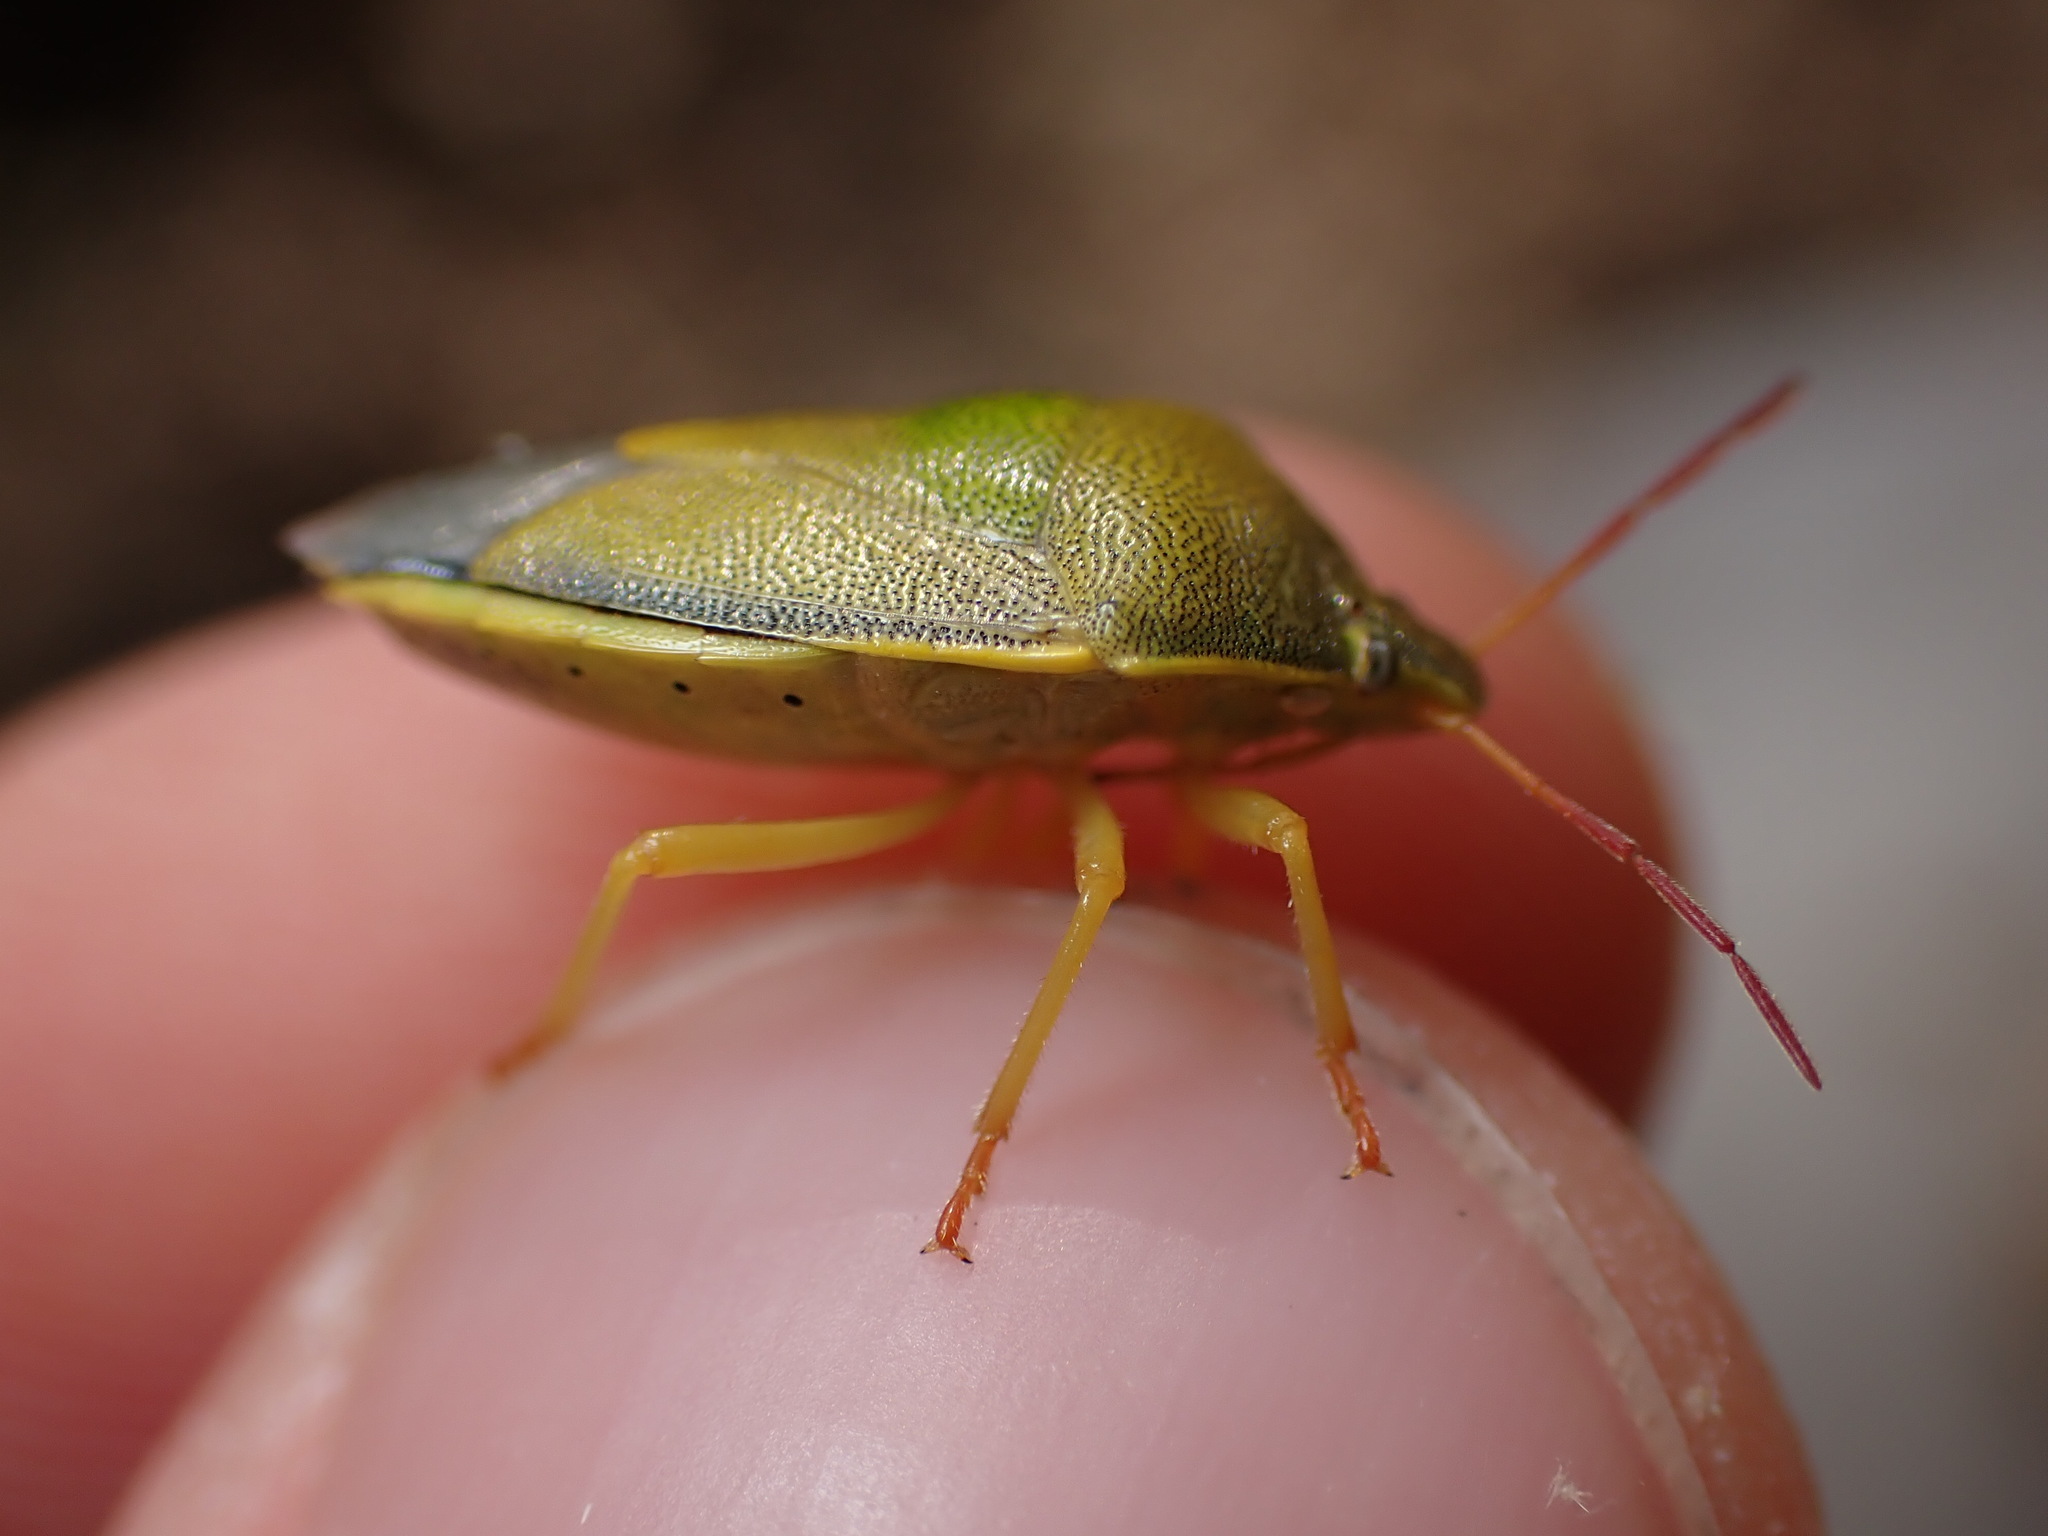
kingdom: Animalia
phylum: Arthropoda
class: Insecta
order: Hemiptera
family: Pentatomidae
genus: Piezodorus
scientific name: Piezodorus lituratus
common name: Stink bug
